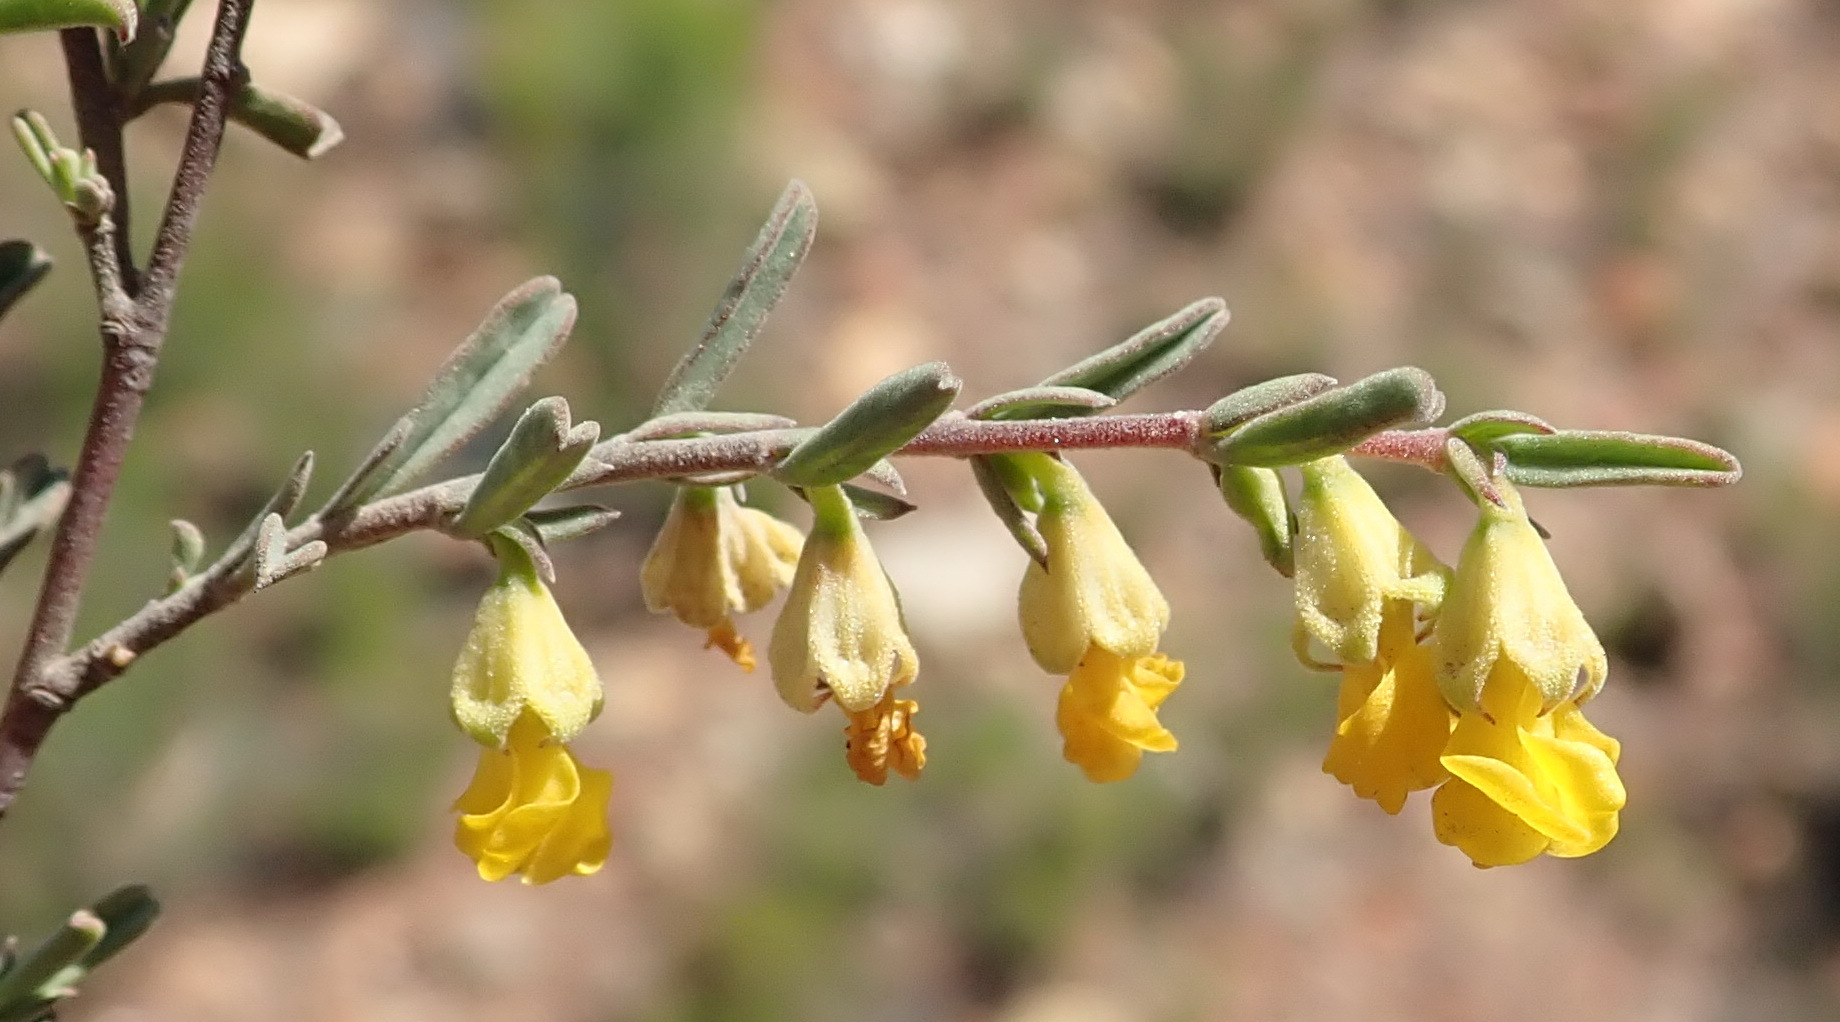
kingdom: Plantae
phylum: Tracheophyta
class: Magnoliopsida
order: Malvales
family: Malvaceae
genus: Hermannia
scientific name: Hermannia diversistipula
